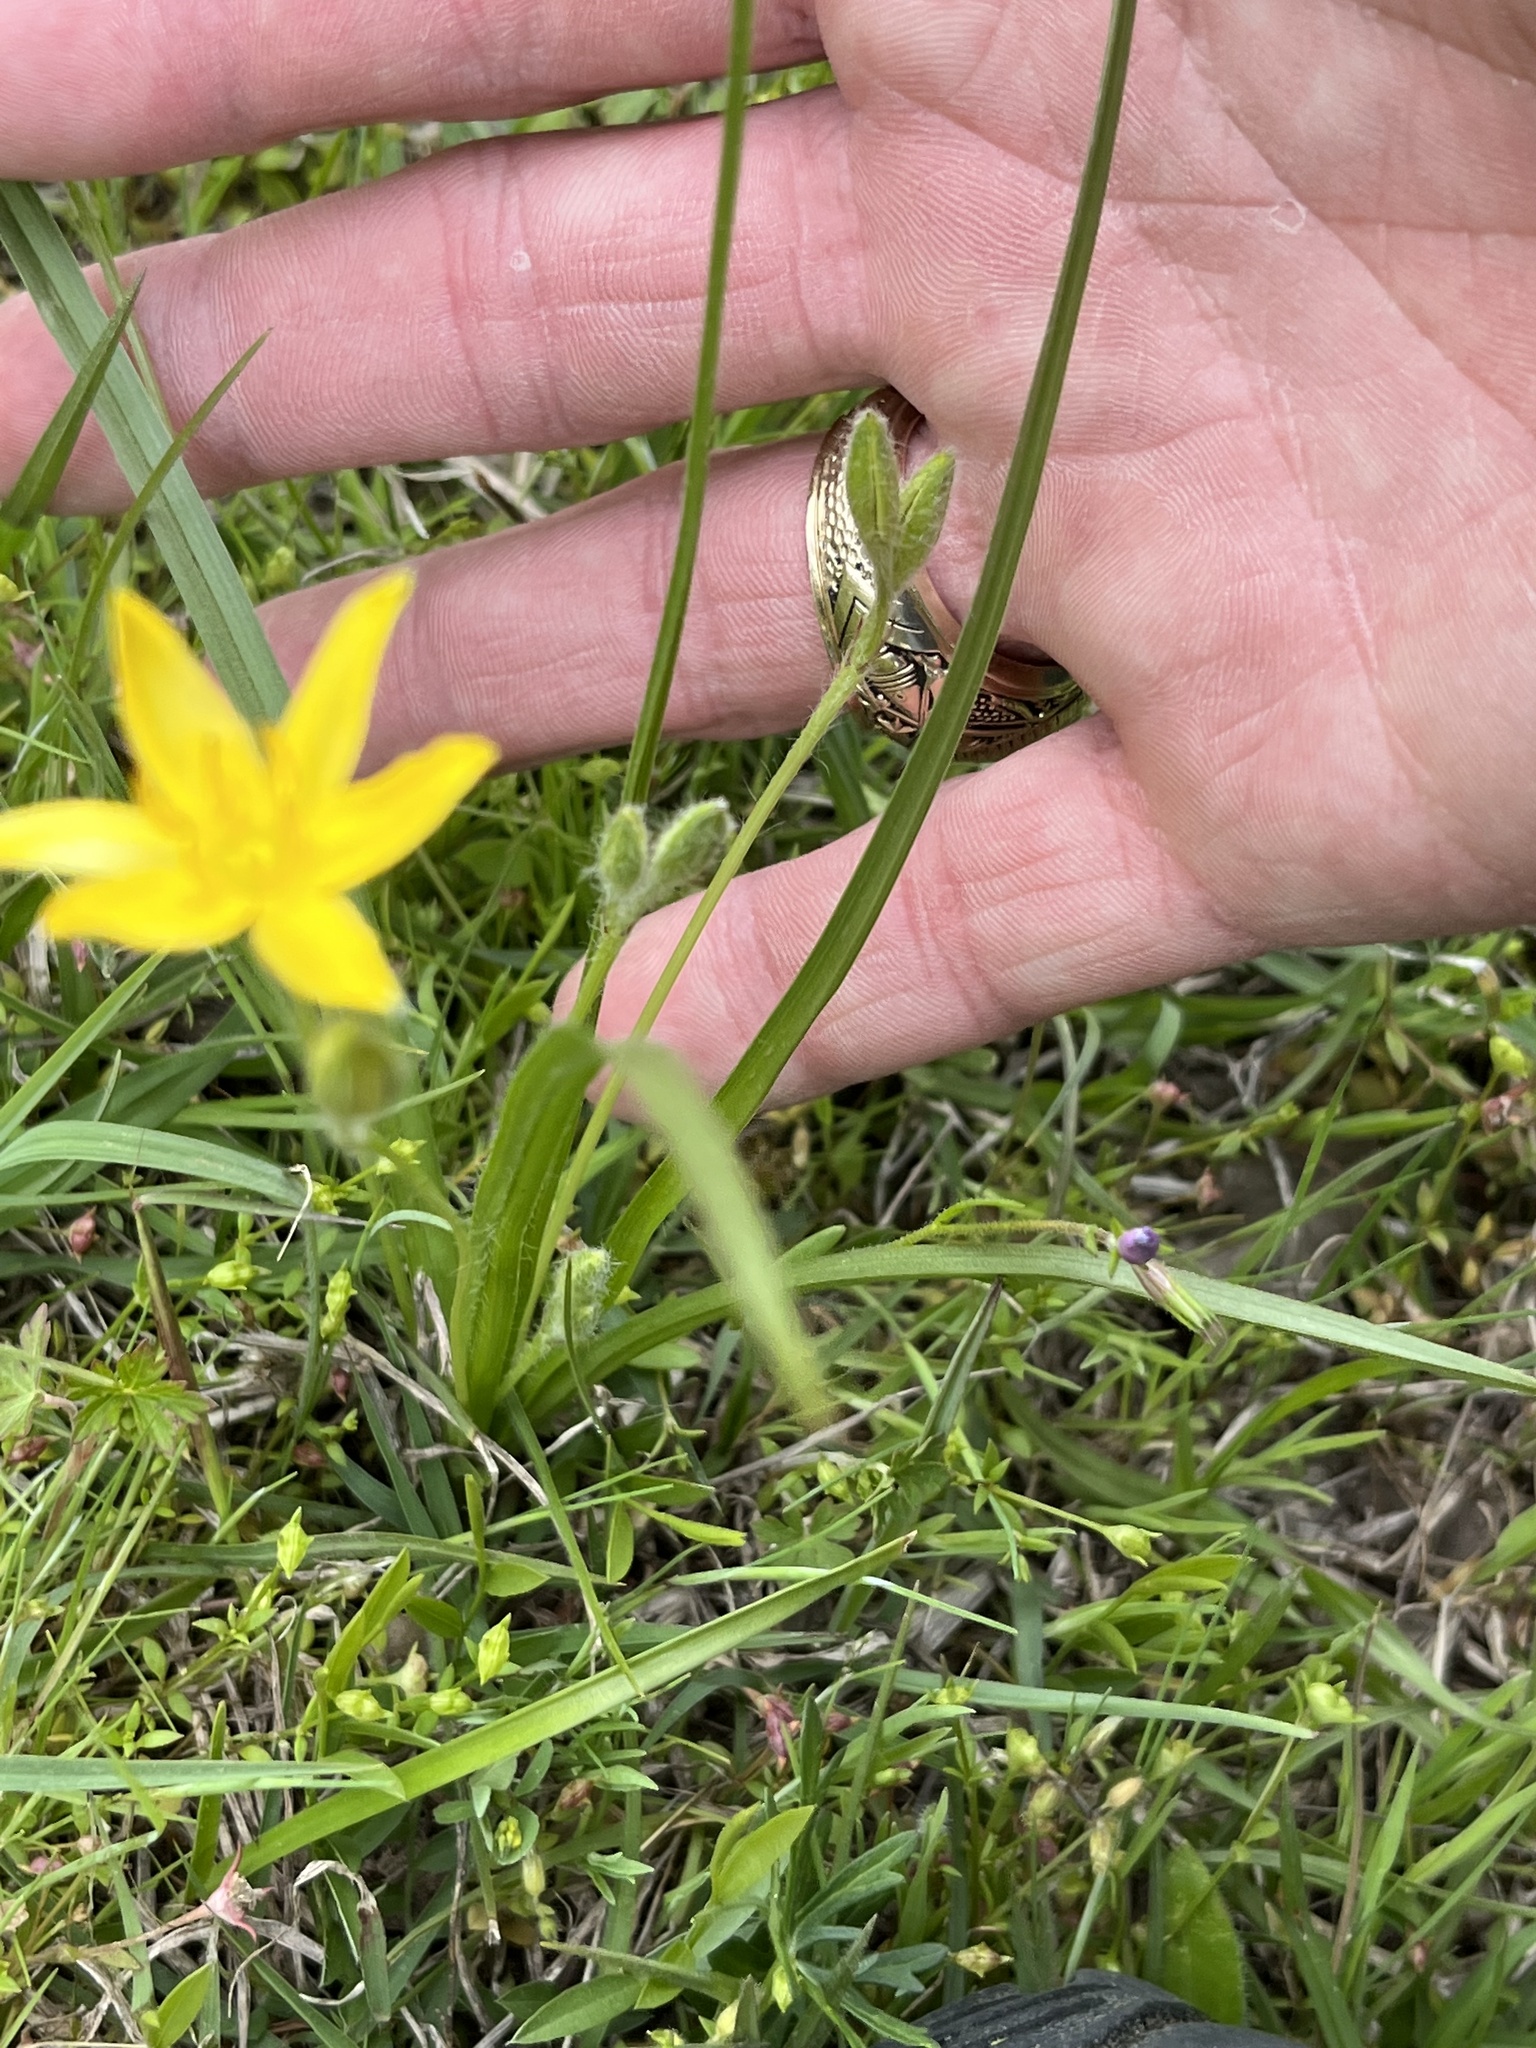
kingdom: Plantae
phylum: Tracheophyta
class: Liliopsida
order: Asparagales
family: Hypoxidaceae
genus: Hypoxis
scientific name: Hypoxis hirsuta
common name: Common goldstar
